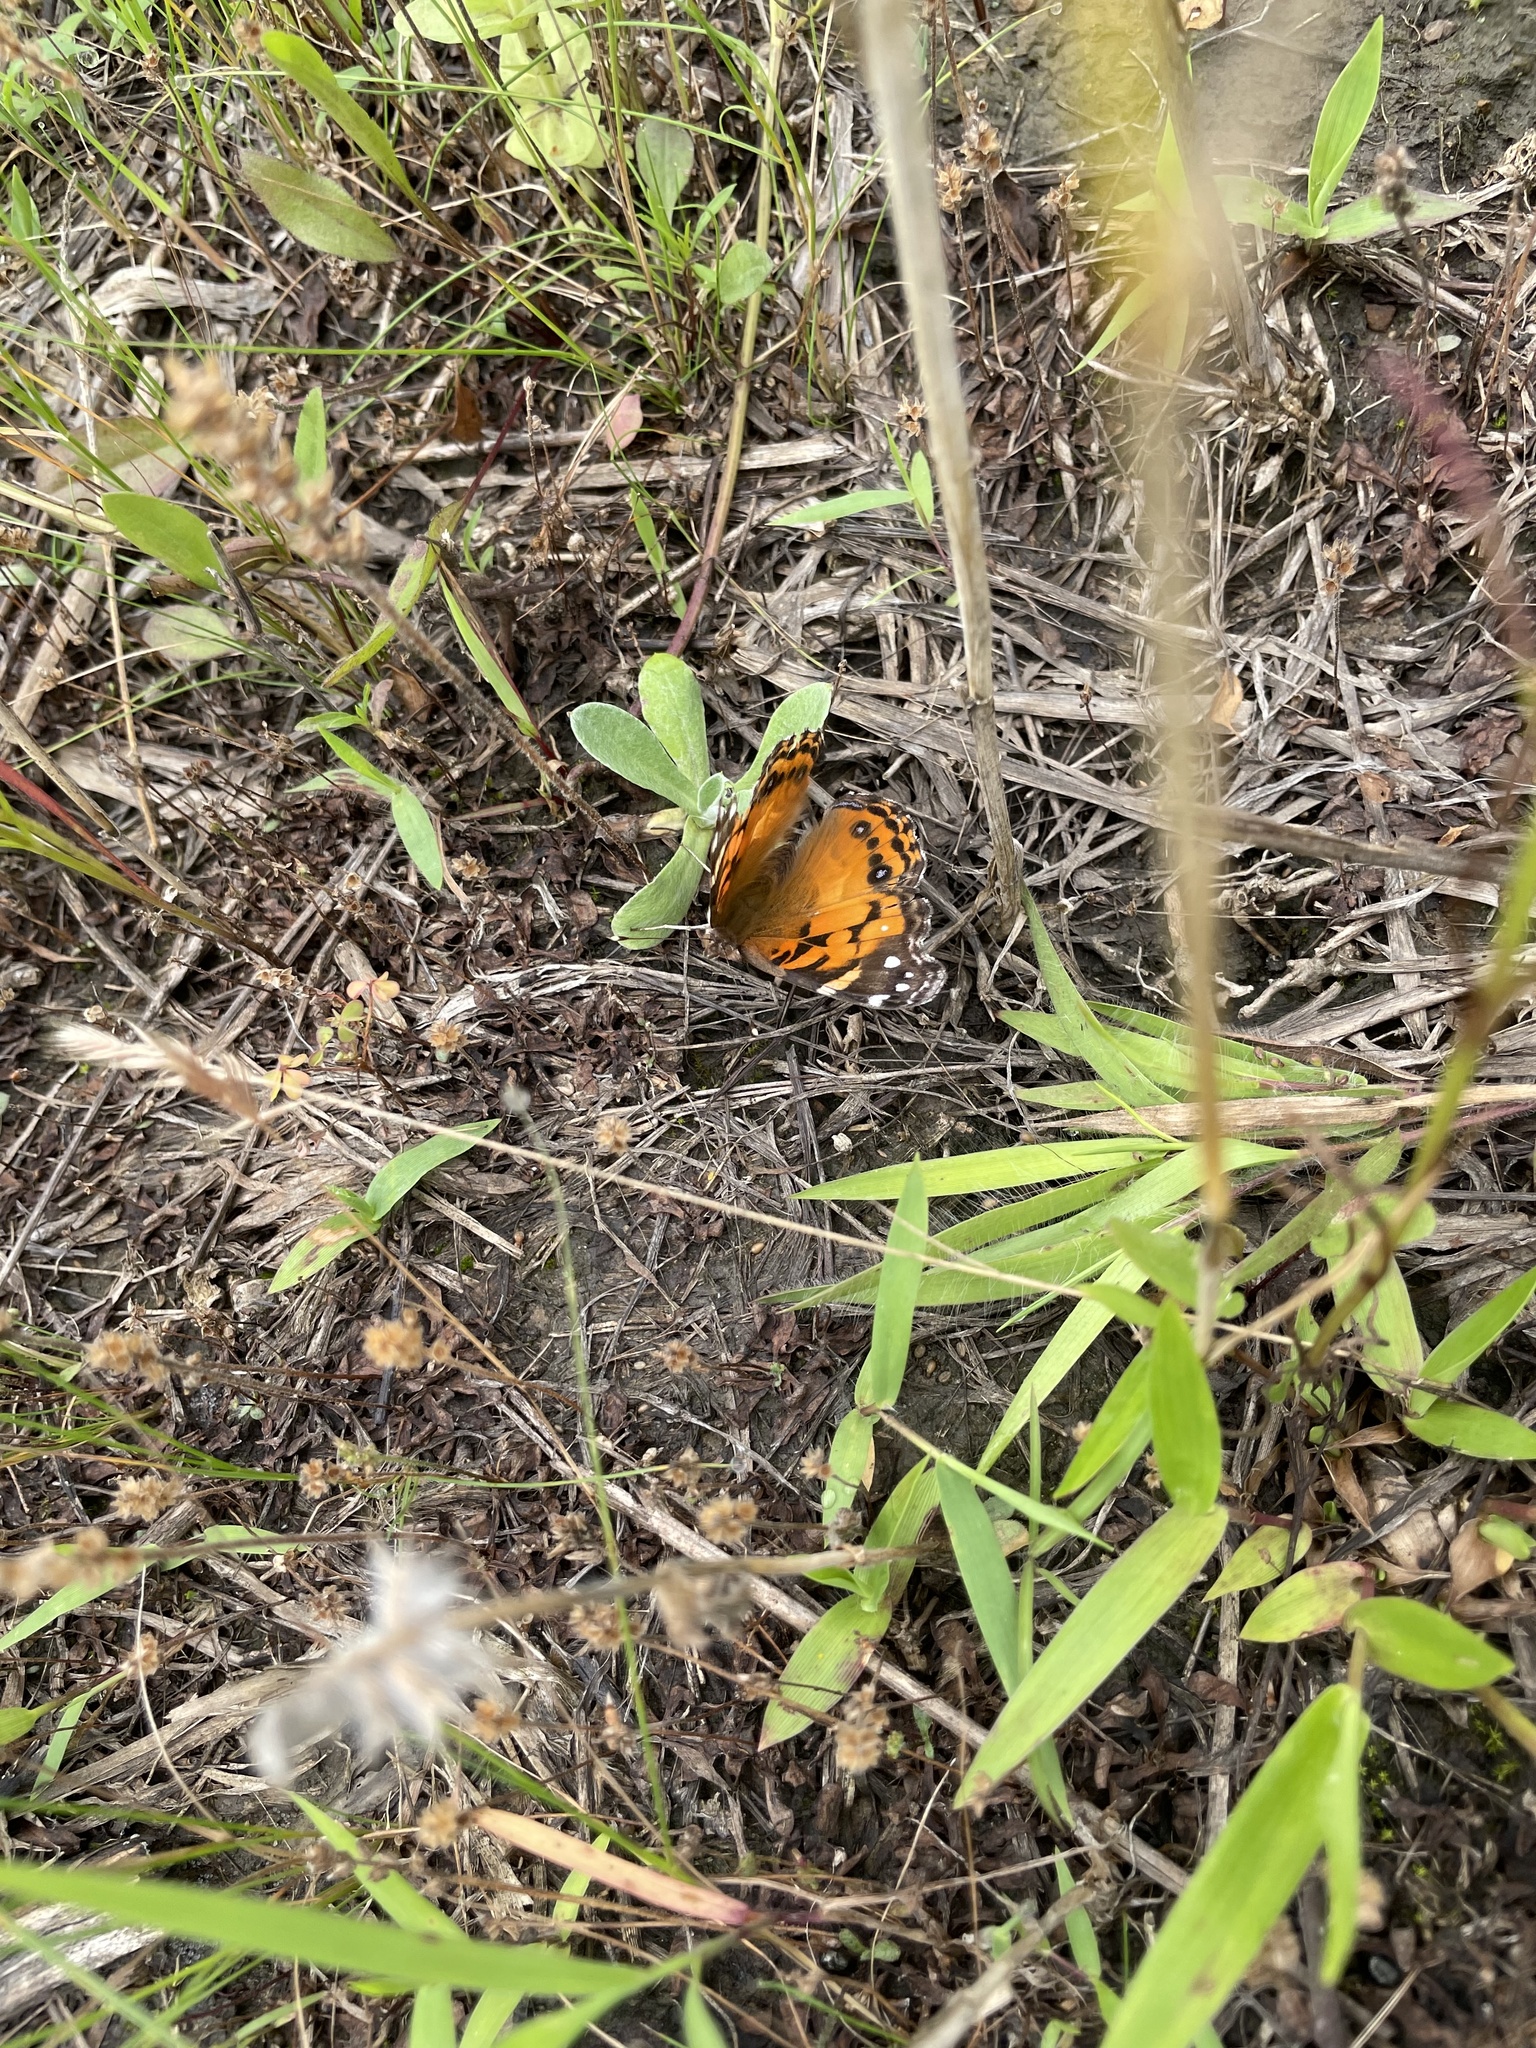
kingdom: Animalia
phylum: Arthropoda
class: Insecta
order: Lepidoptera
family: Nymphalidae
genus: Vanessa
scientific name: Vanessa virginiensis
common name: American lady
